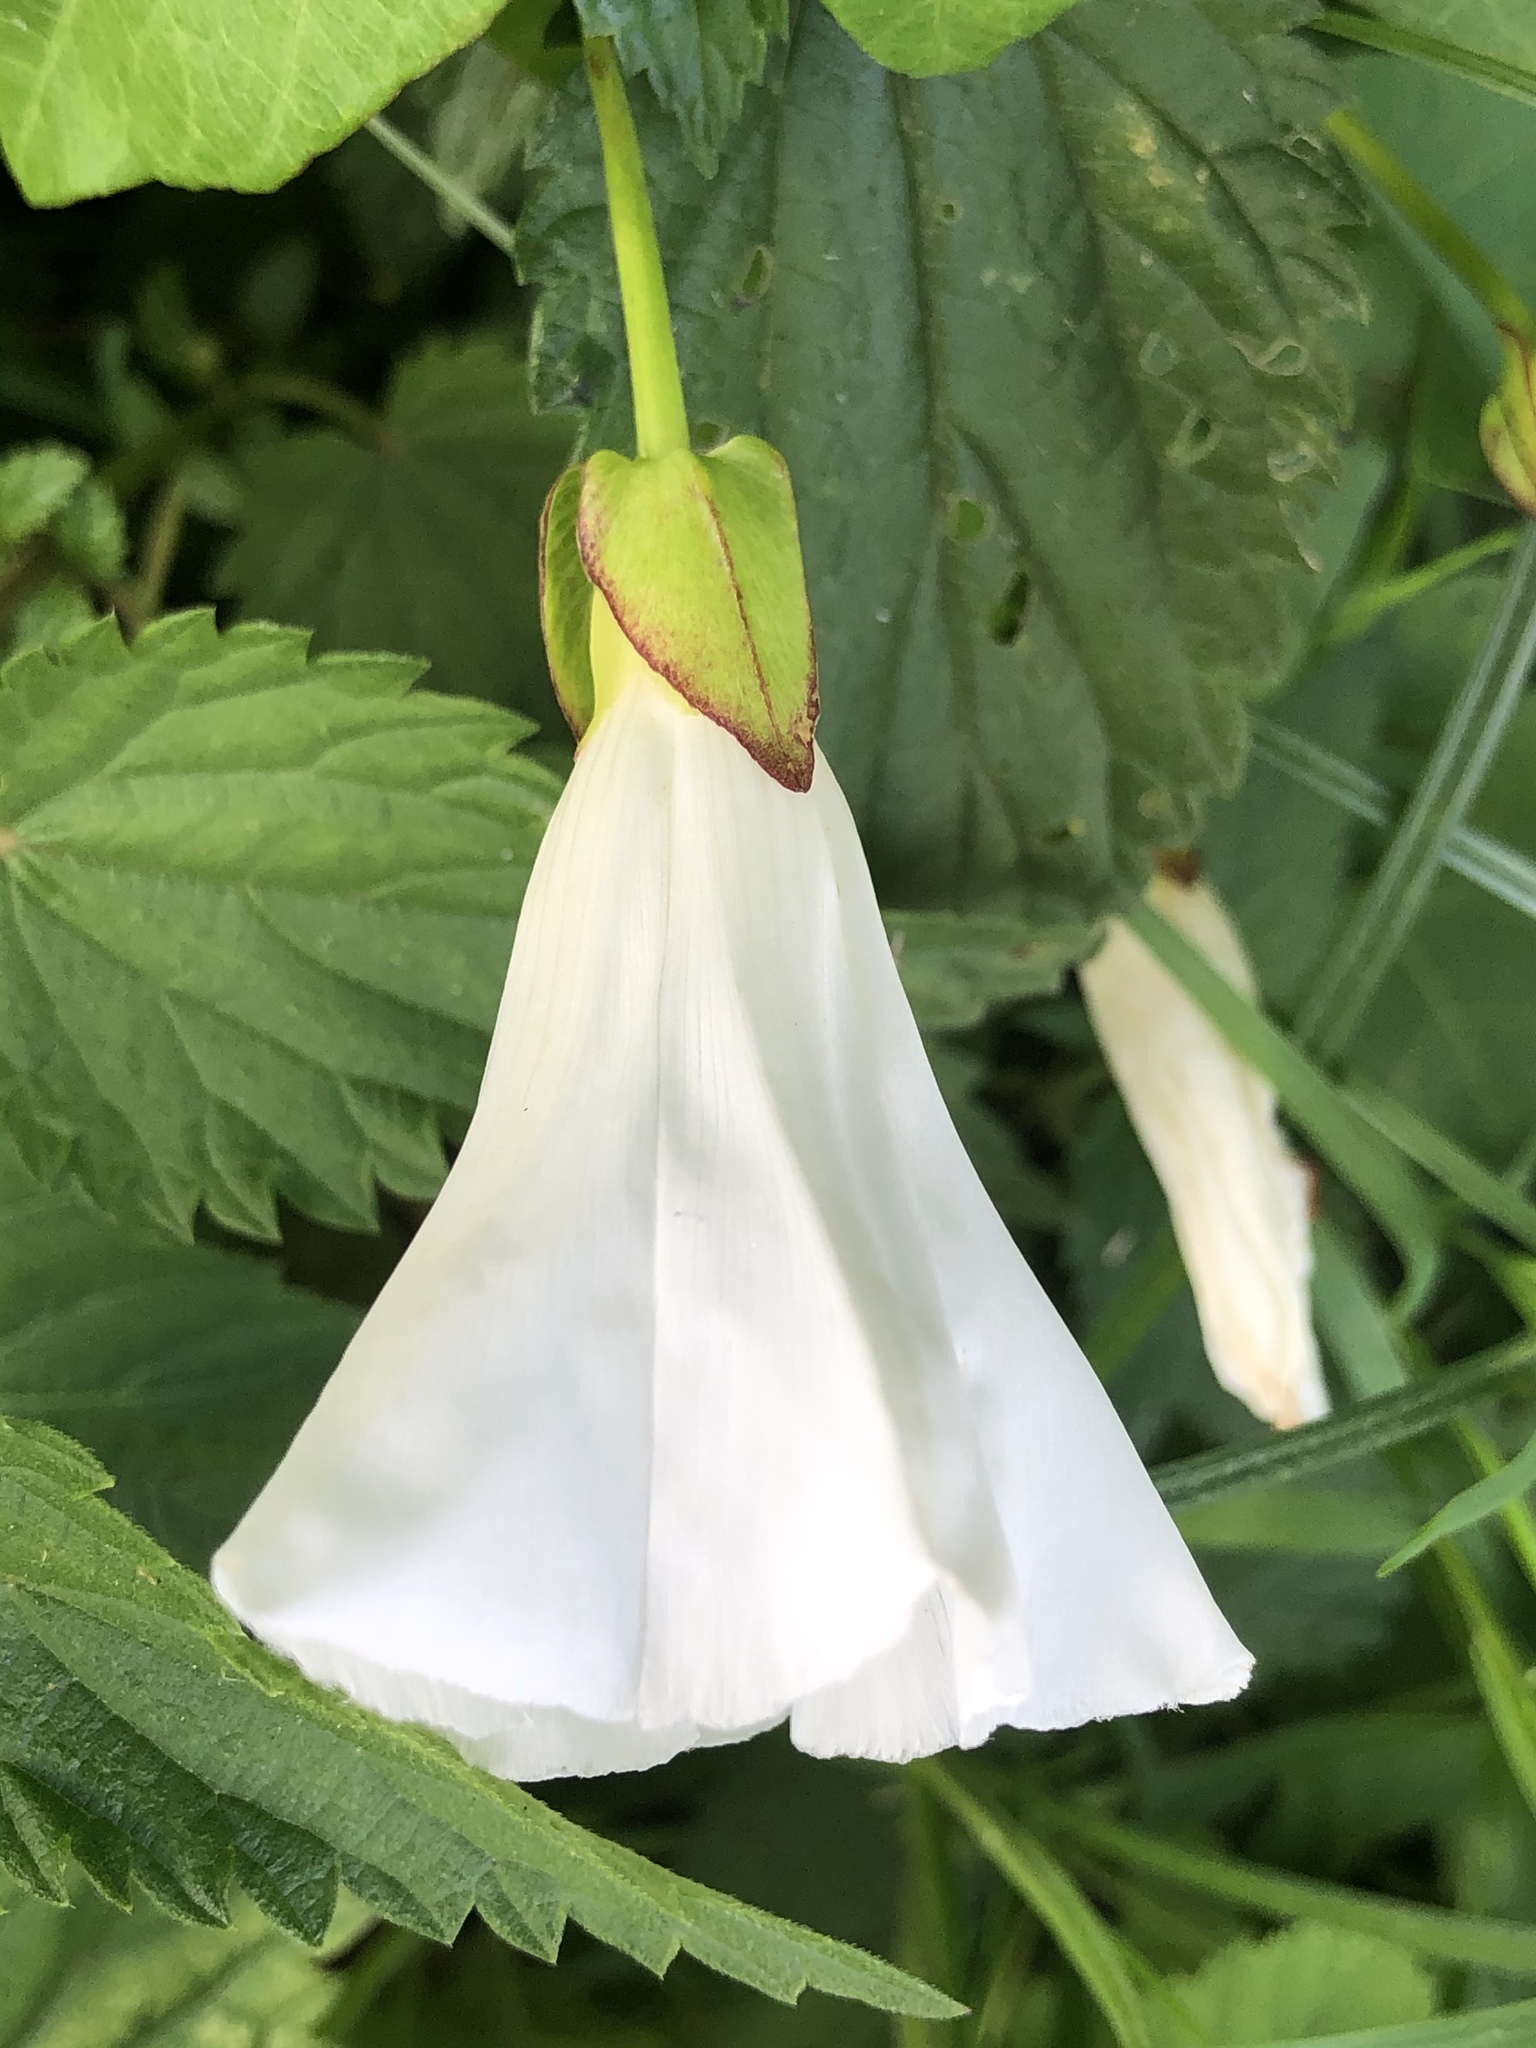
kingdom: Plantae
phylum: Tracheophyta
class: Magnoliopsida
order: Solanales
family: Convolvulaceae
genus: Calystegia
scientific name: Calystegia sepium
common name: Hedge bindweed
